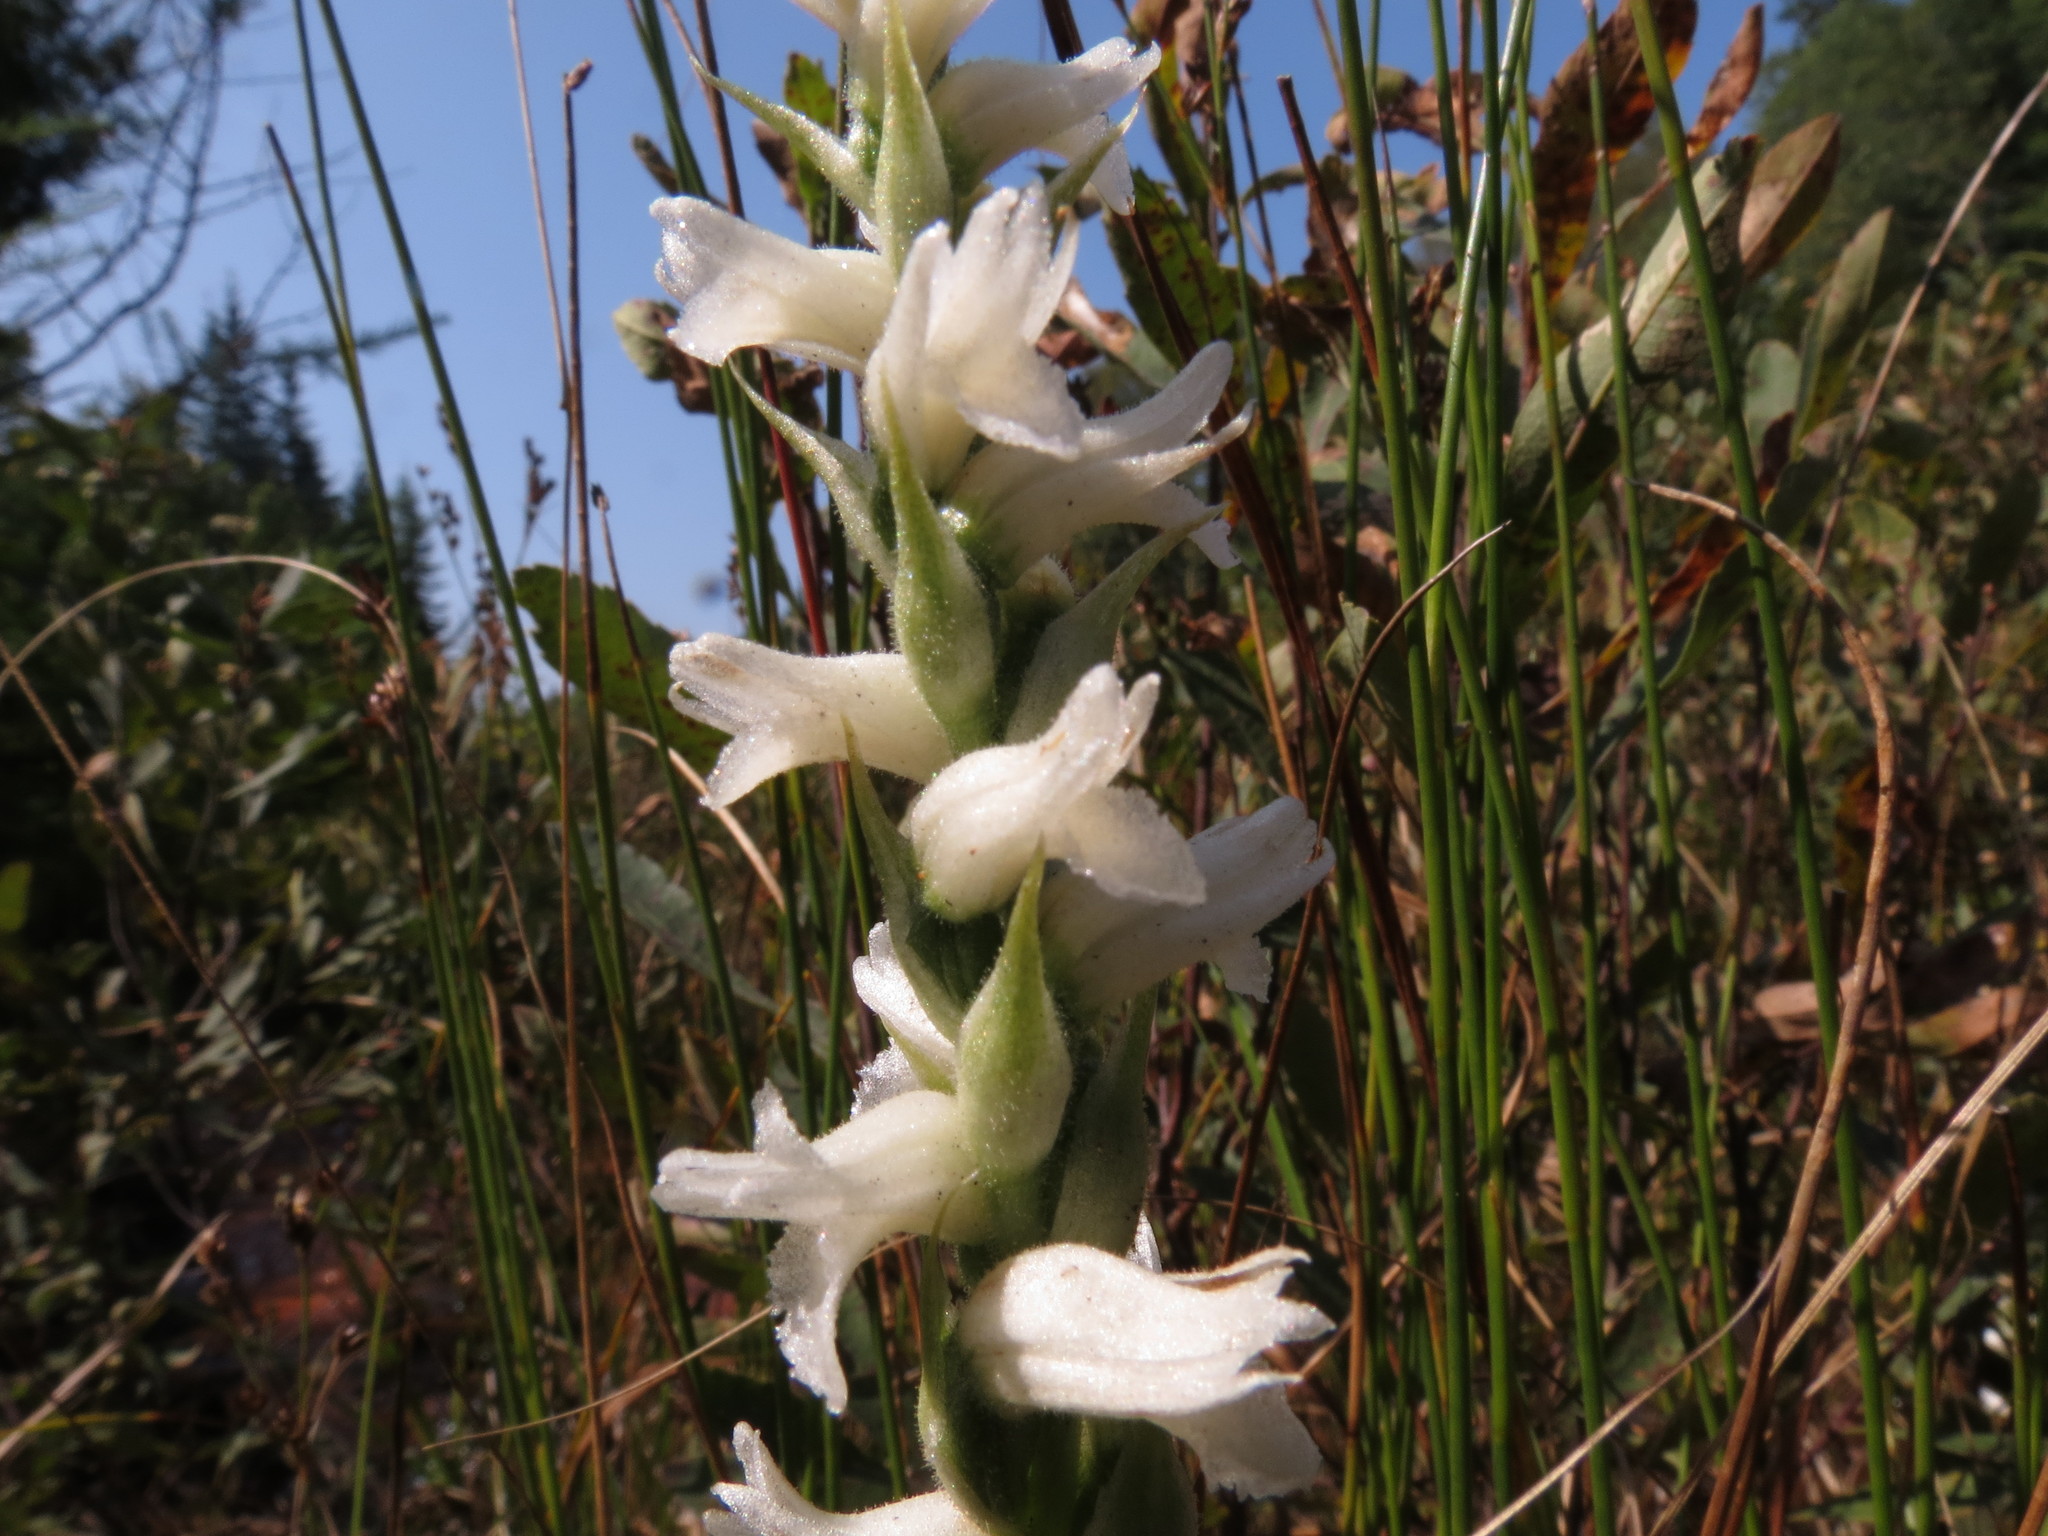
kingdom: Plantae
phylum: Tracheophyta
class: Liliopsida
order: Asparagales
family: Orchidaceae
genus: Spiranthes
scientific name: Spiranthes incurva
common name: Sphinx ladies'-tresses
